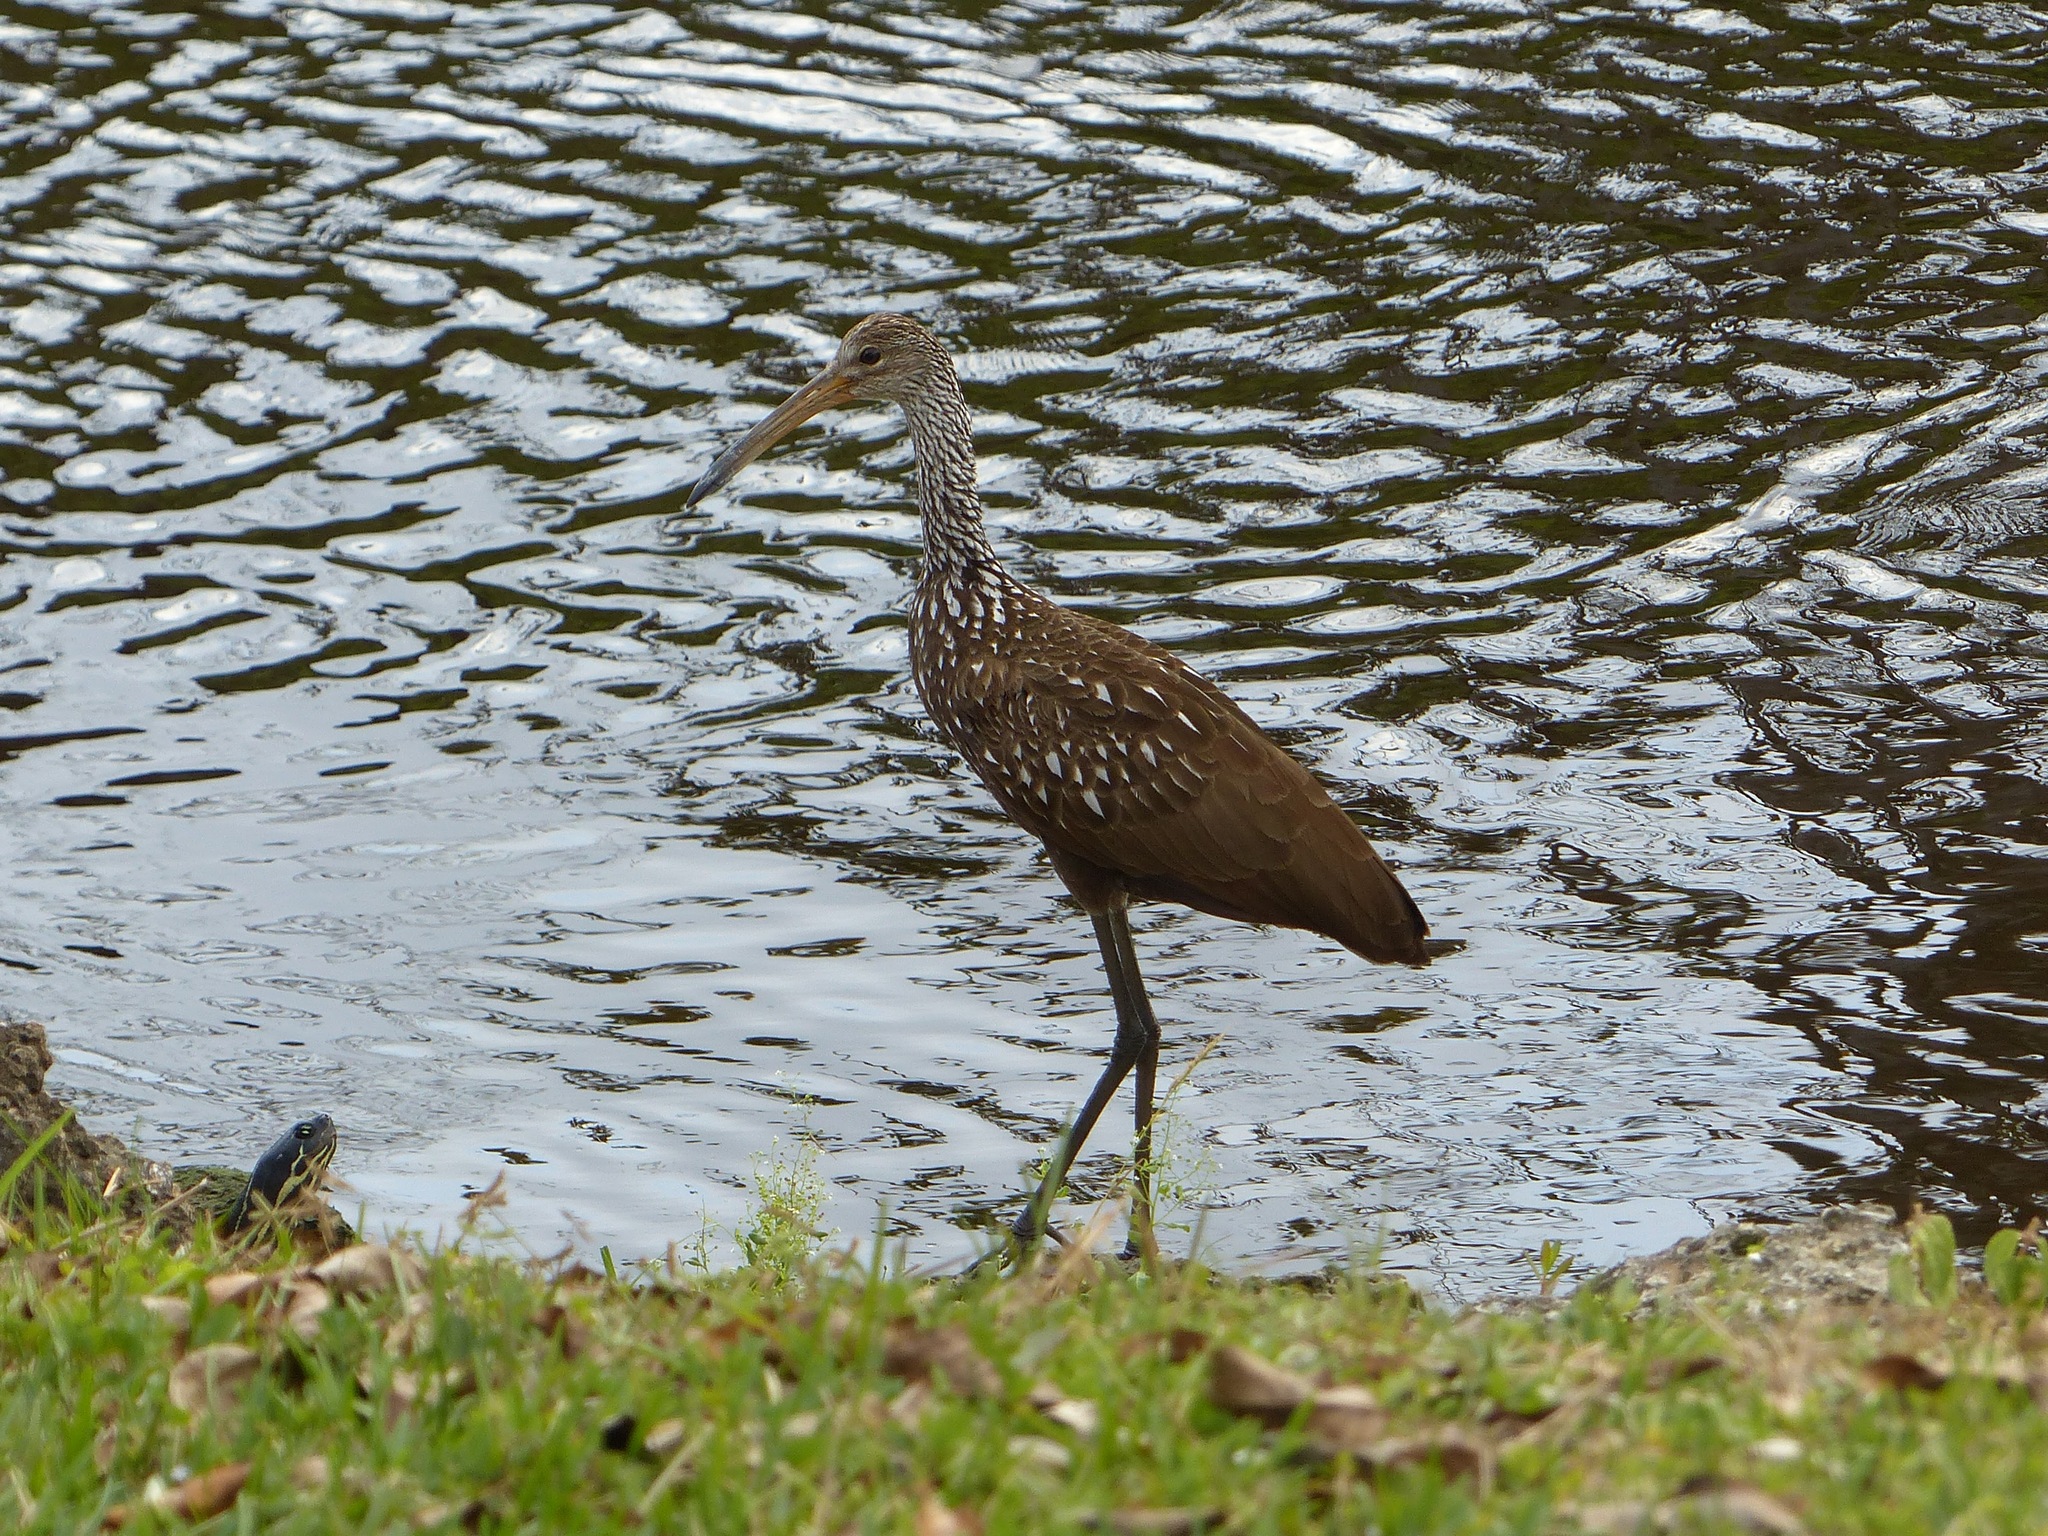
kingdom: Animalia
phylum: Chordata
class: Aves
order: Gruiformes
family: Aramidae
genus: Aramus
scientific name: Aramus guarauna
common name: Limpkin
